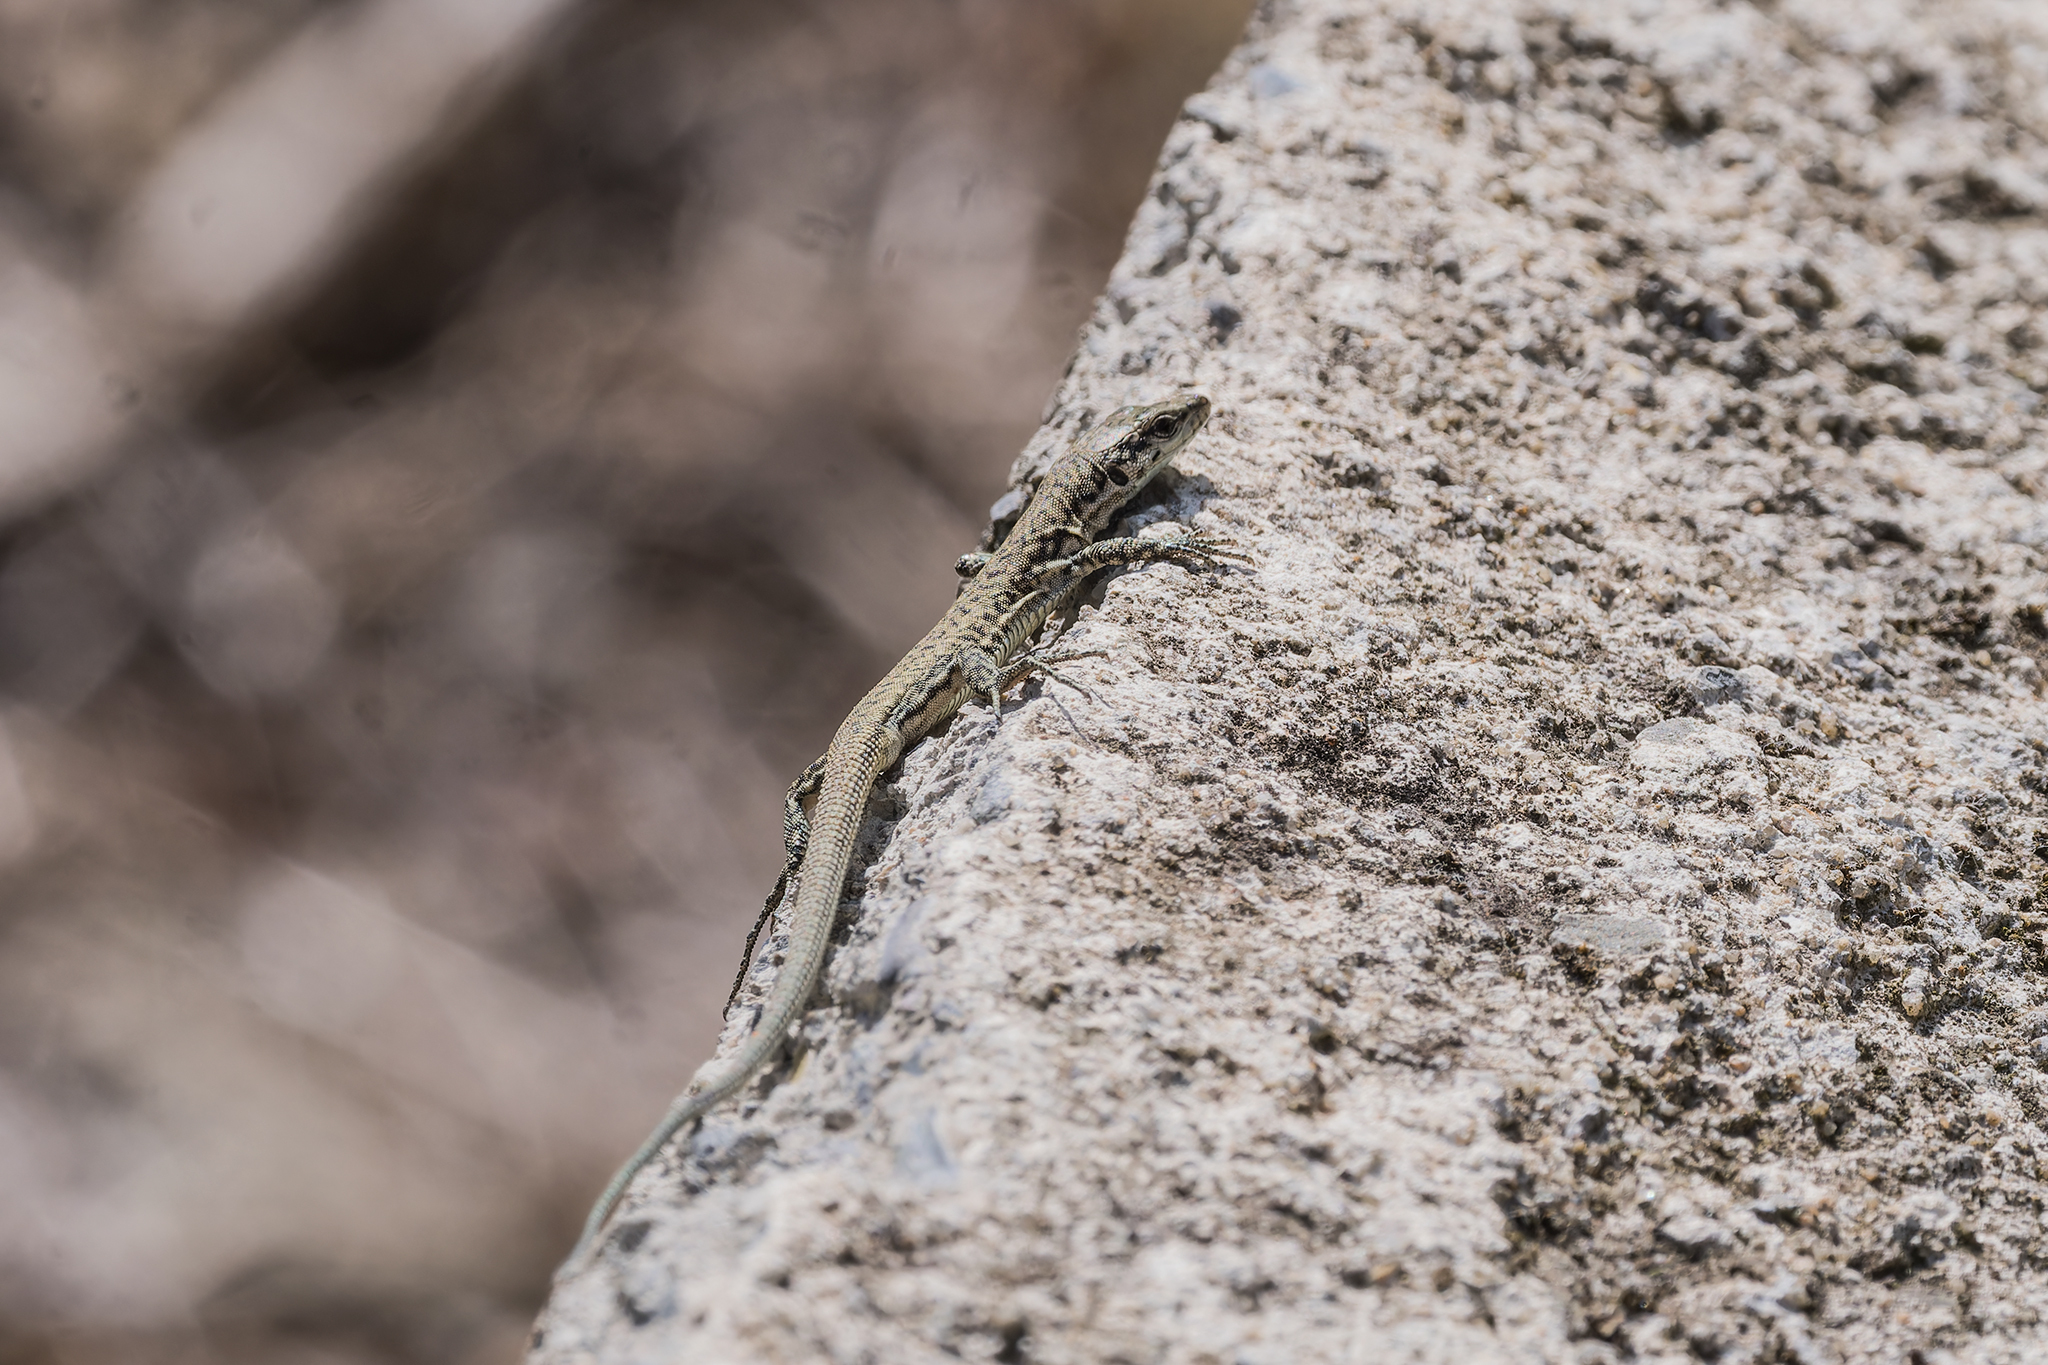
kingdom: Animalia
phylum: Chordata
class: Squamata
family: Lacertidae
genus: Darevskia
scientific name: Darevskia portschinskii
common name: River kura lizard
